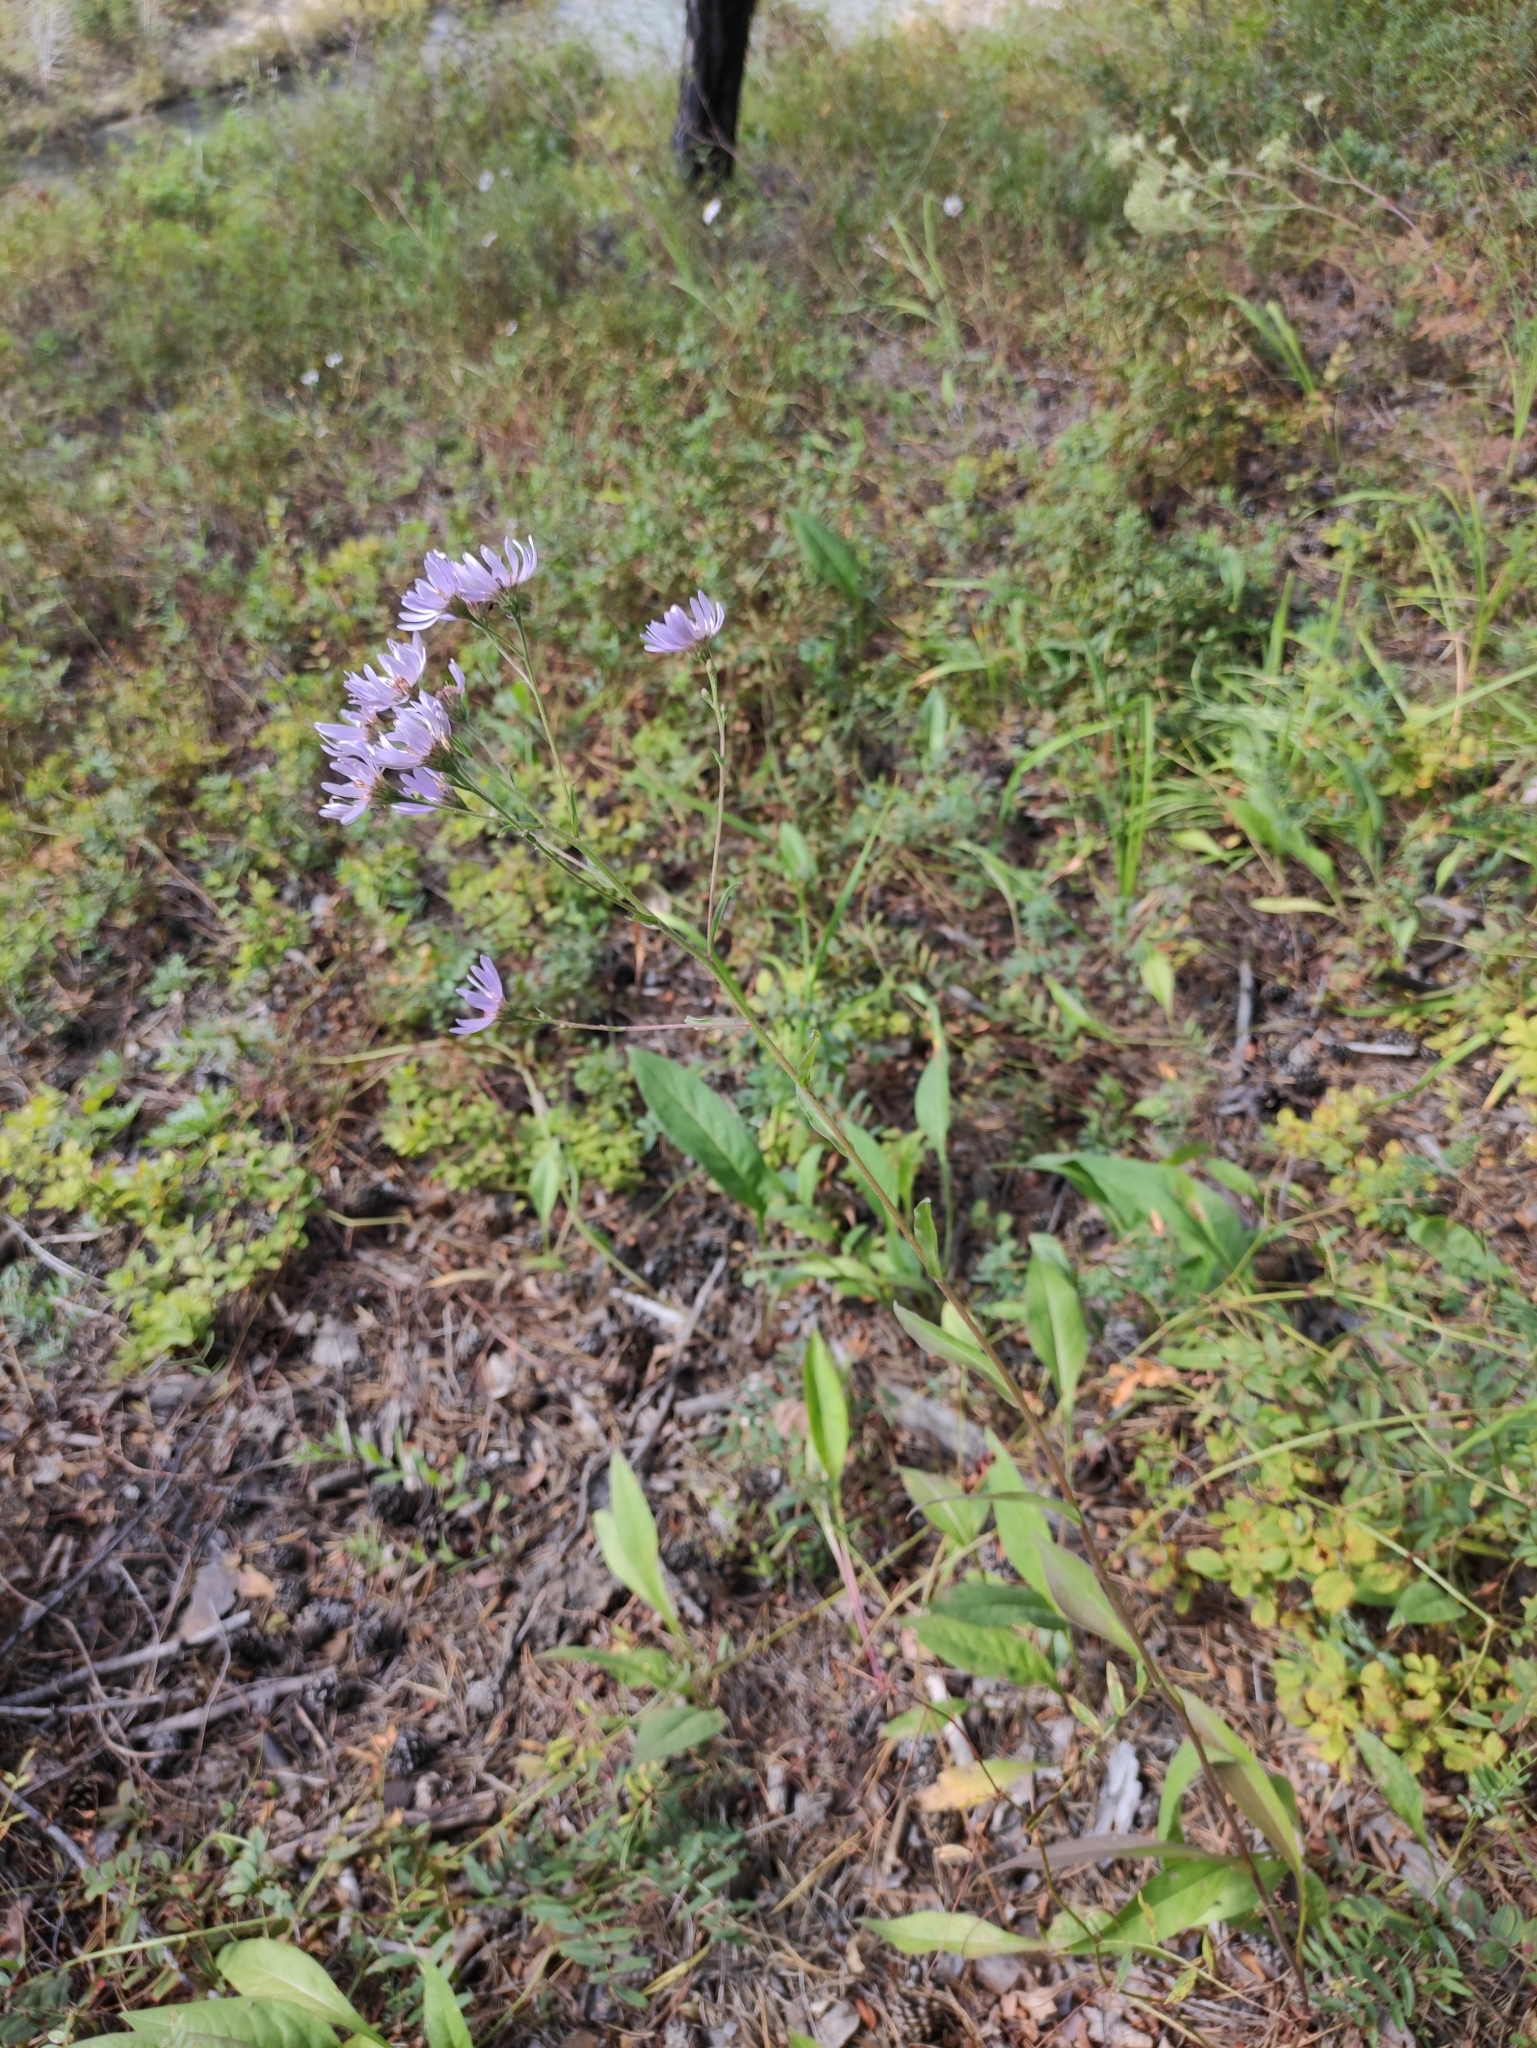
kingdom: Plantae
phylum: Tracheophyta
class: Magnoliopsida
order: Asterales
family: Asteraceae
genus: Aster
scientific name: Aster tataricus
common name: Tatarian aster
